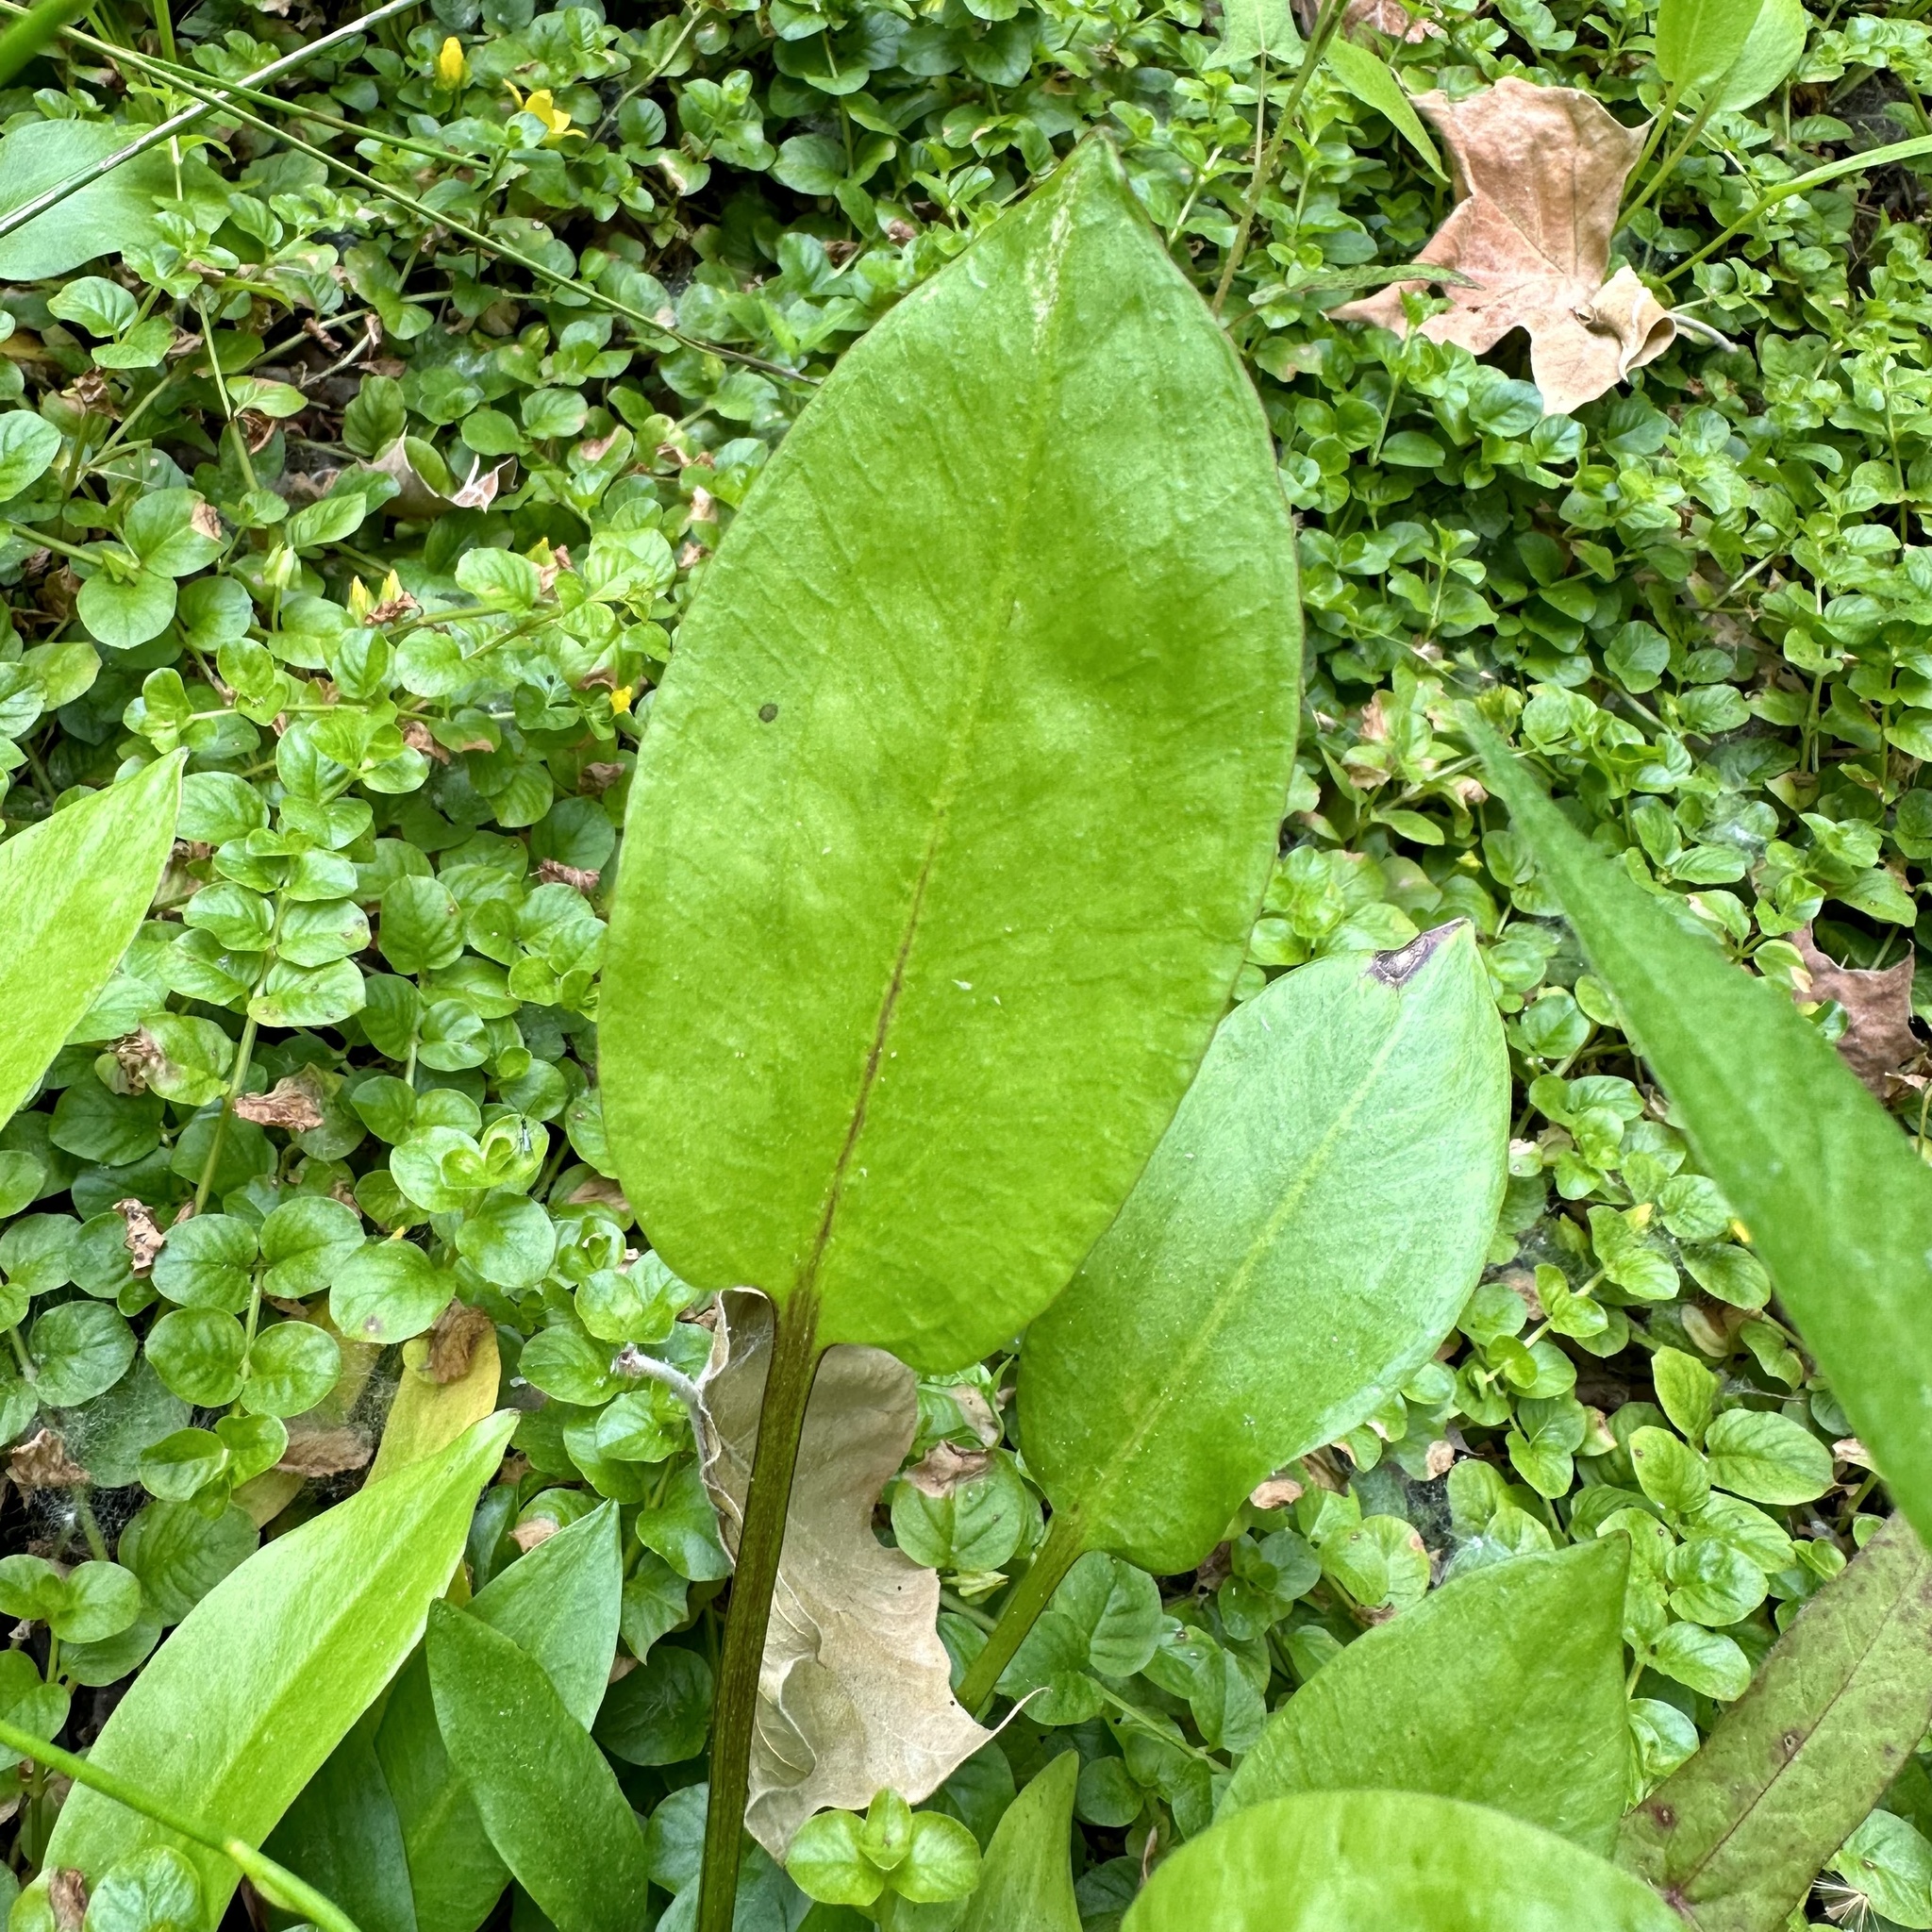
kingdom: Plantae
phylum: Tracheophyta
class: Liliopsida
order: Alismatales
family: Alismataceae
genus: Alisma
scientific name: Alisma subcordatum
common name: Southern water-plantain
